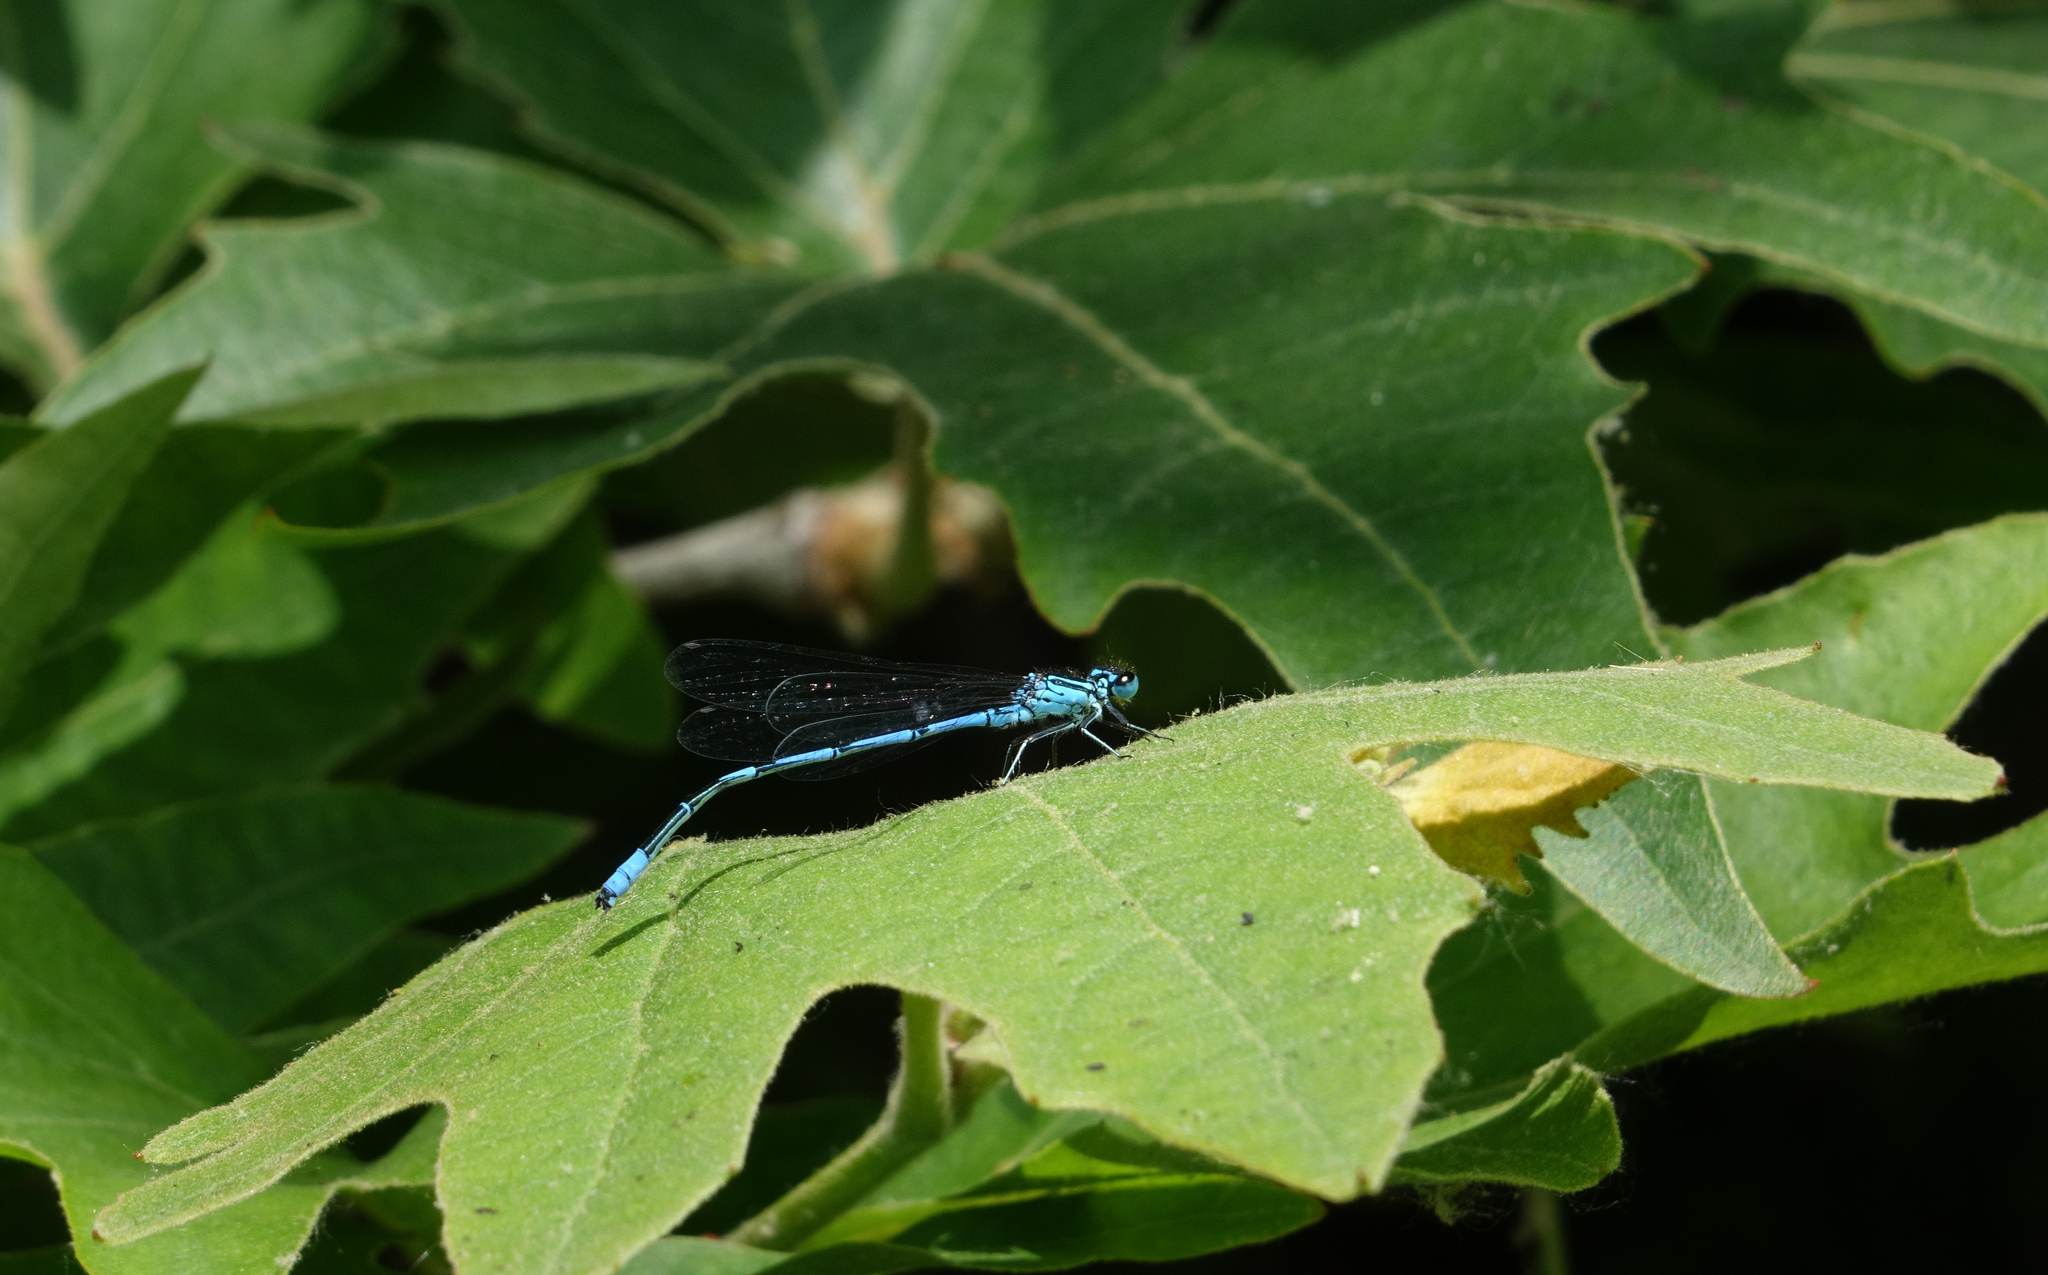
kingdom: Animalia
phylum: Arthropoda
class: Insecta
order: Odonata
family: Coenagrionidae
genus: Coenagrion
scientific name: Coenagrion australocaspicum
